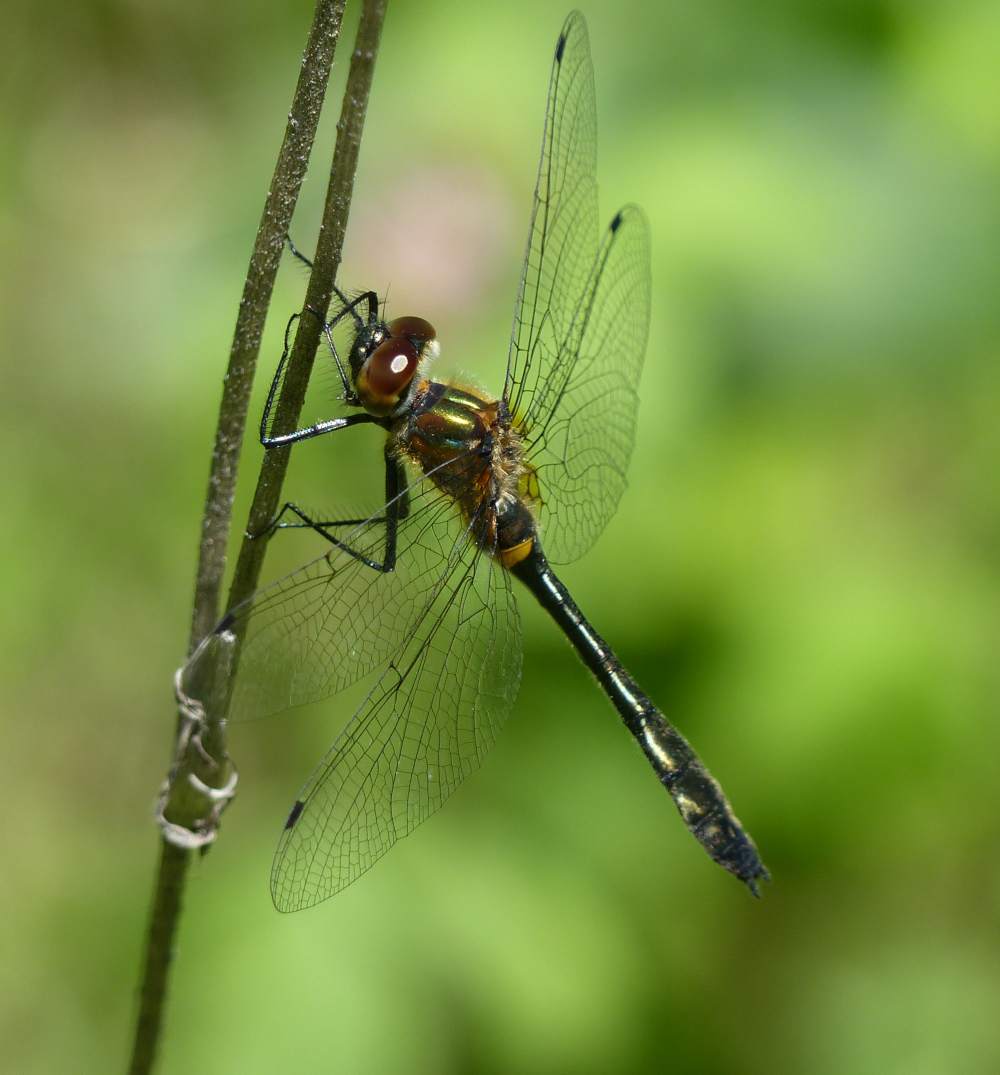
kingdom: Animalia
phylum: Arthropoda
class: Insecta
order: Odonata
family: Corduliidae
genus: Dorocordulia
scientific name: Dorocordulia libera
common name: Racket-tailed emerald
